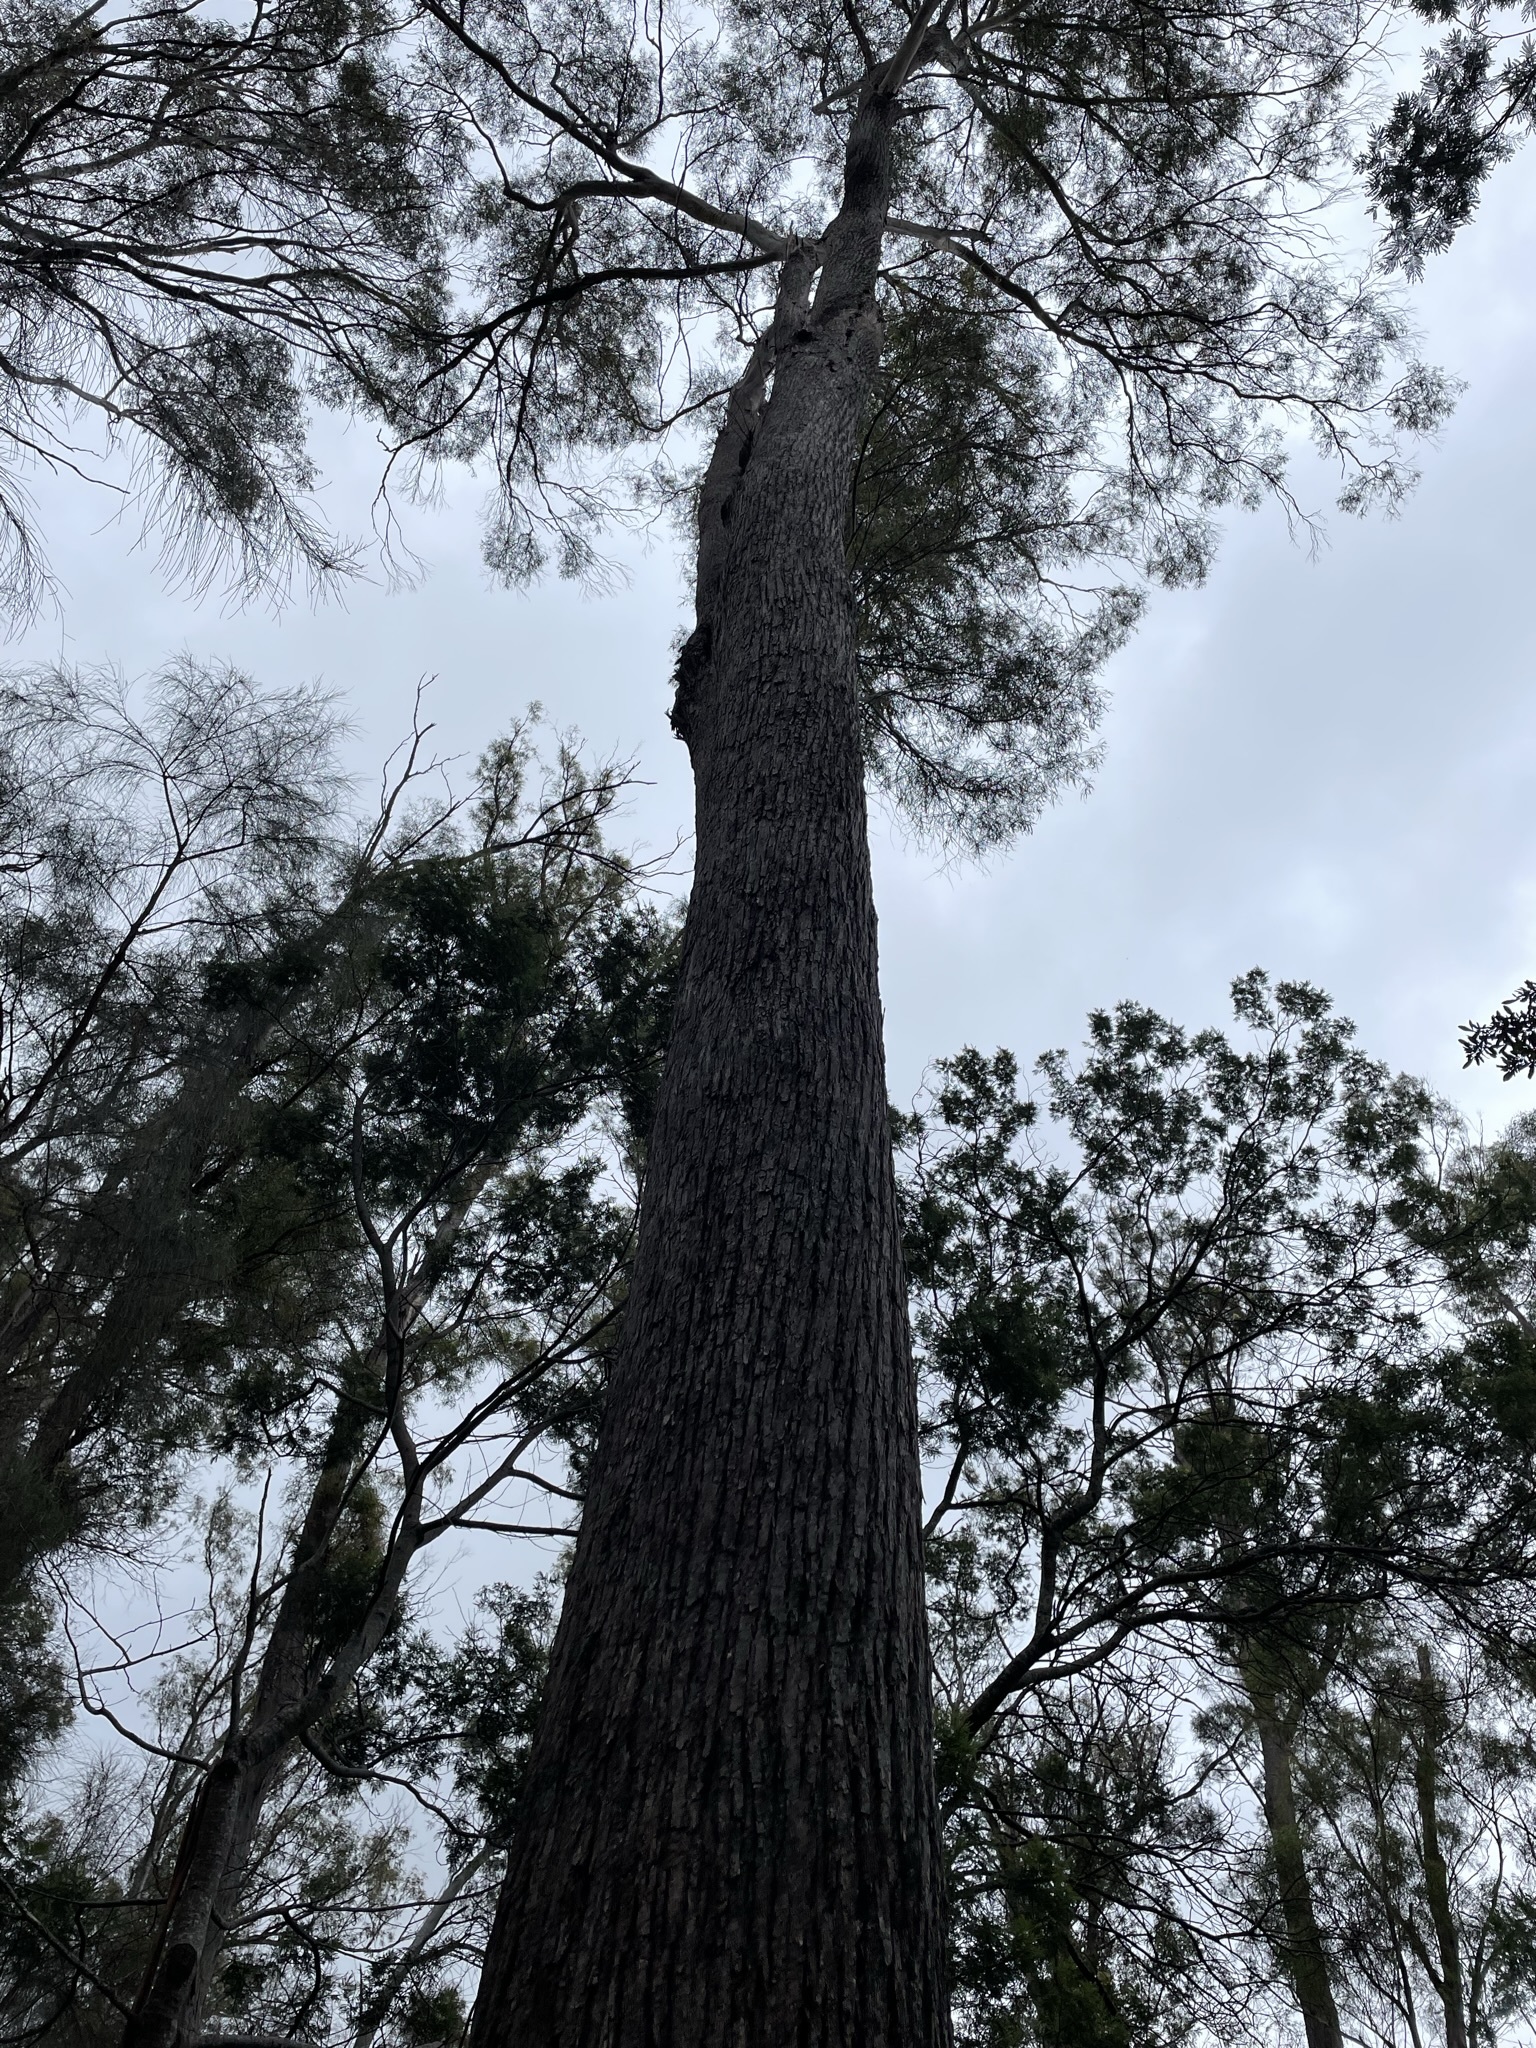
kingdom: Plantae
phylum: Tracheophyta
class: Magnoliopsida
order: Myrtales
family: Myrtaceae
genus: Eucalyptus
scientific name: Eucalyptus amygdalina
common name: Black peppermint
